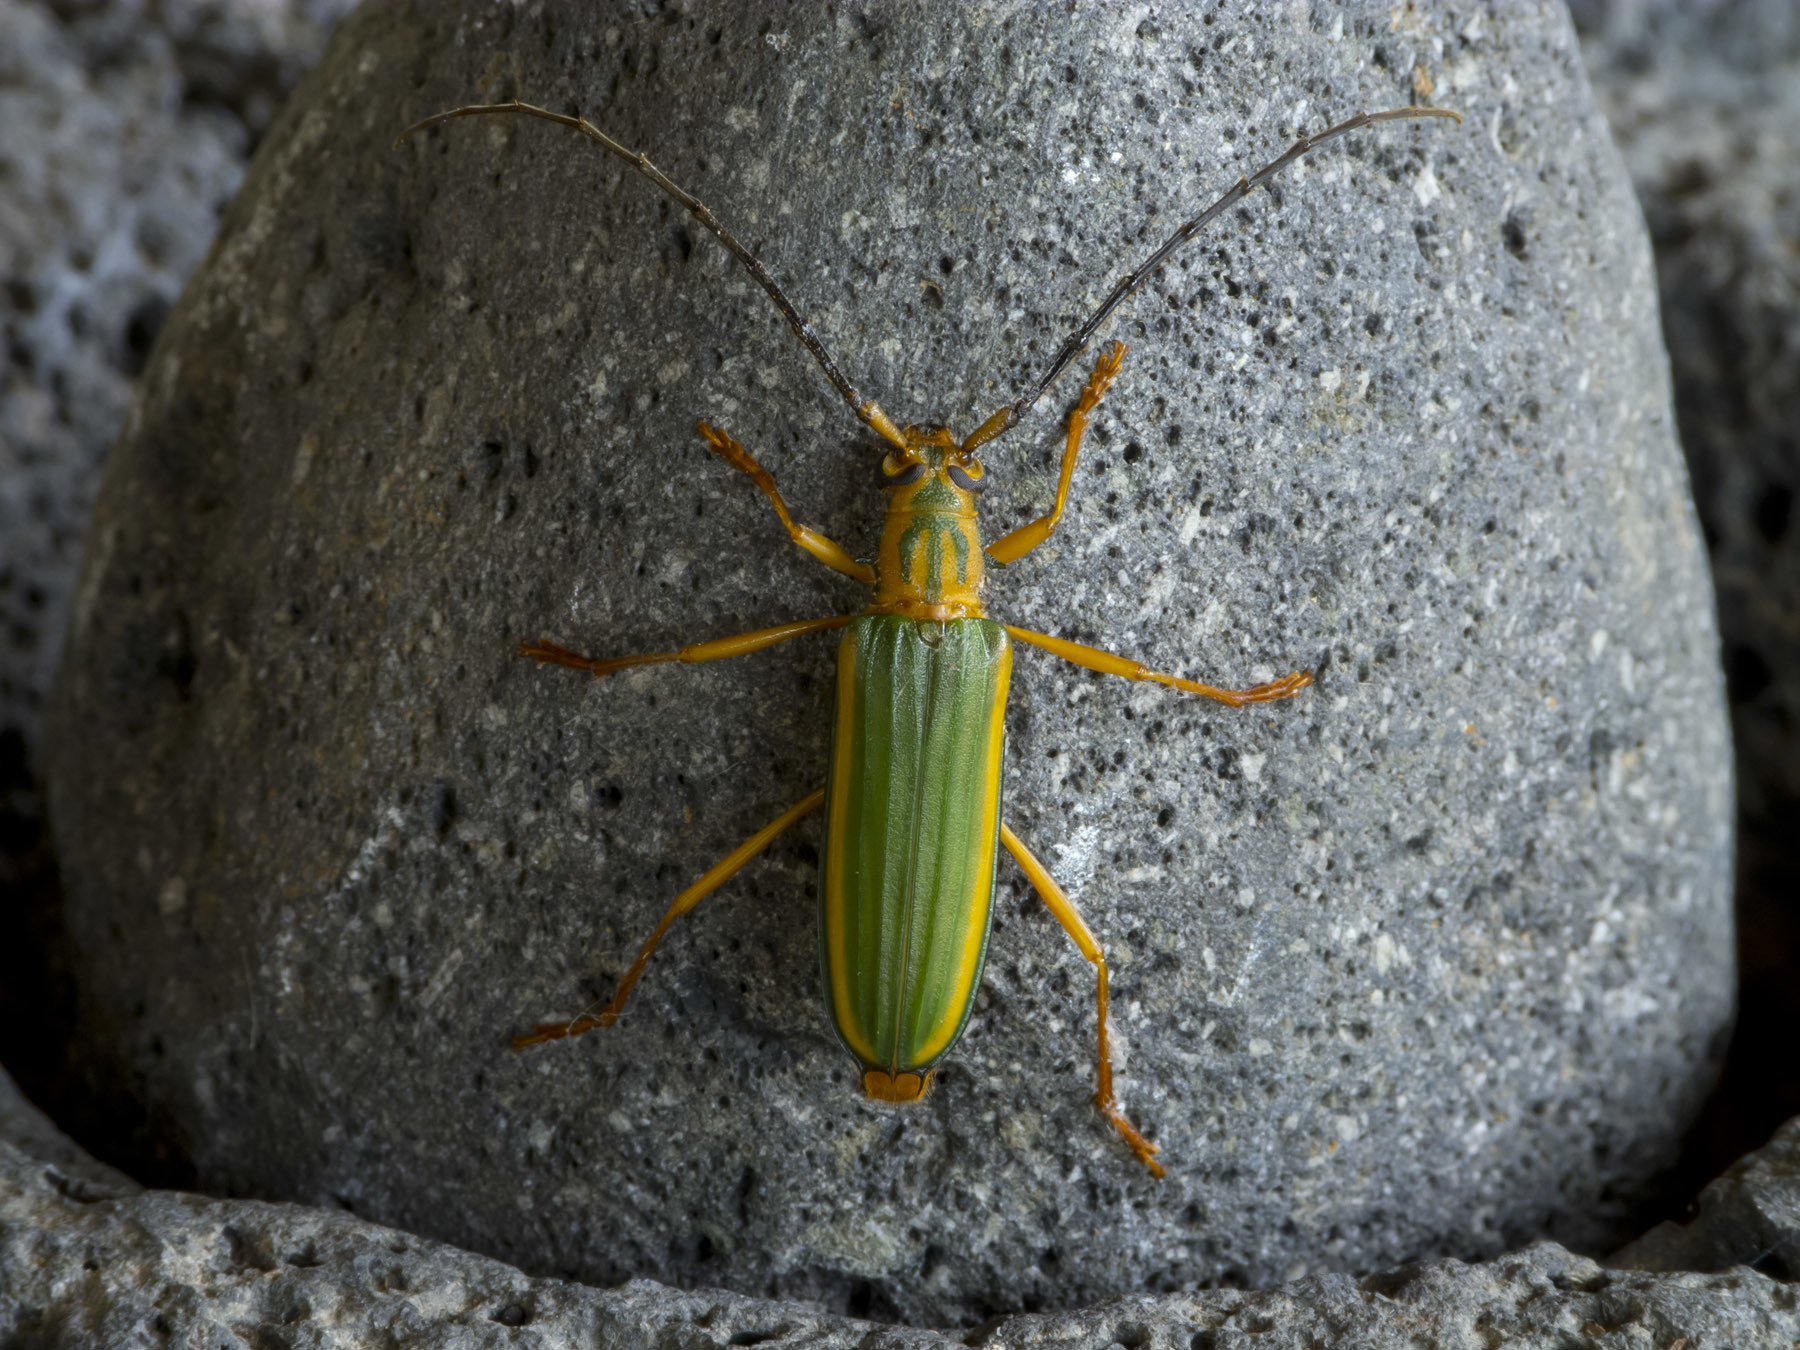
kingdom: Animalia
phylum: Arthropoda
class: Insecta
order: Coleoptera
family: Cerambycidae
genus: Chlorida
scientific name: Chlorida festiva
